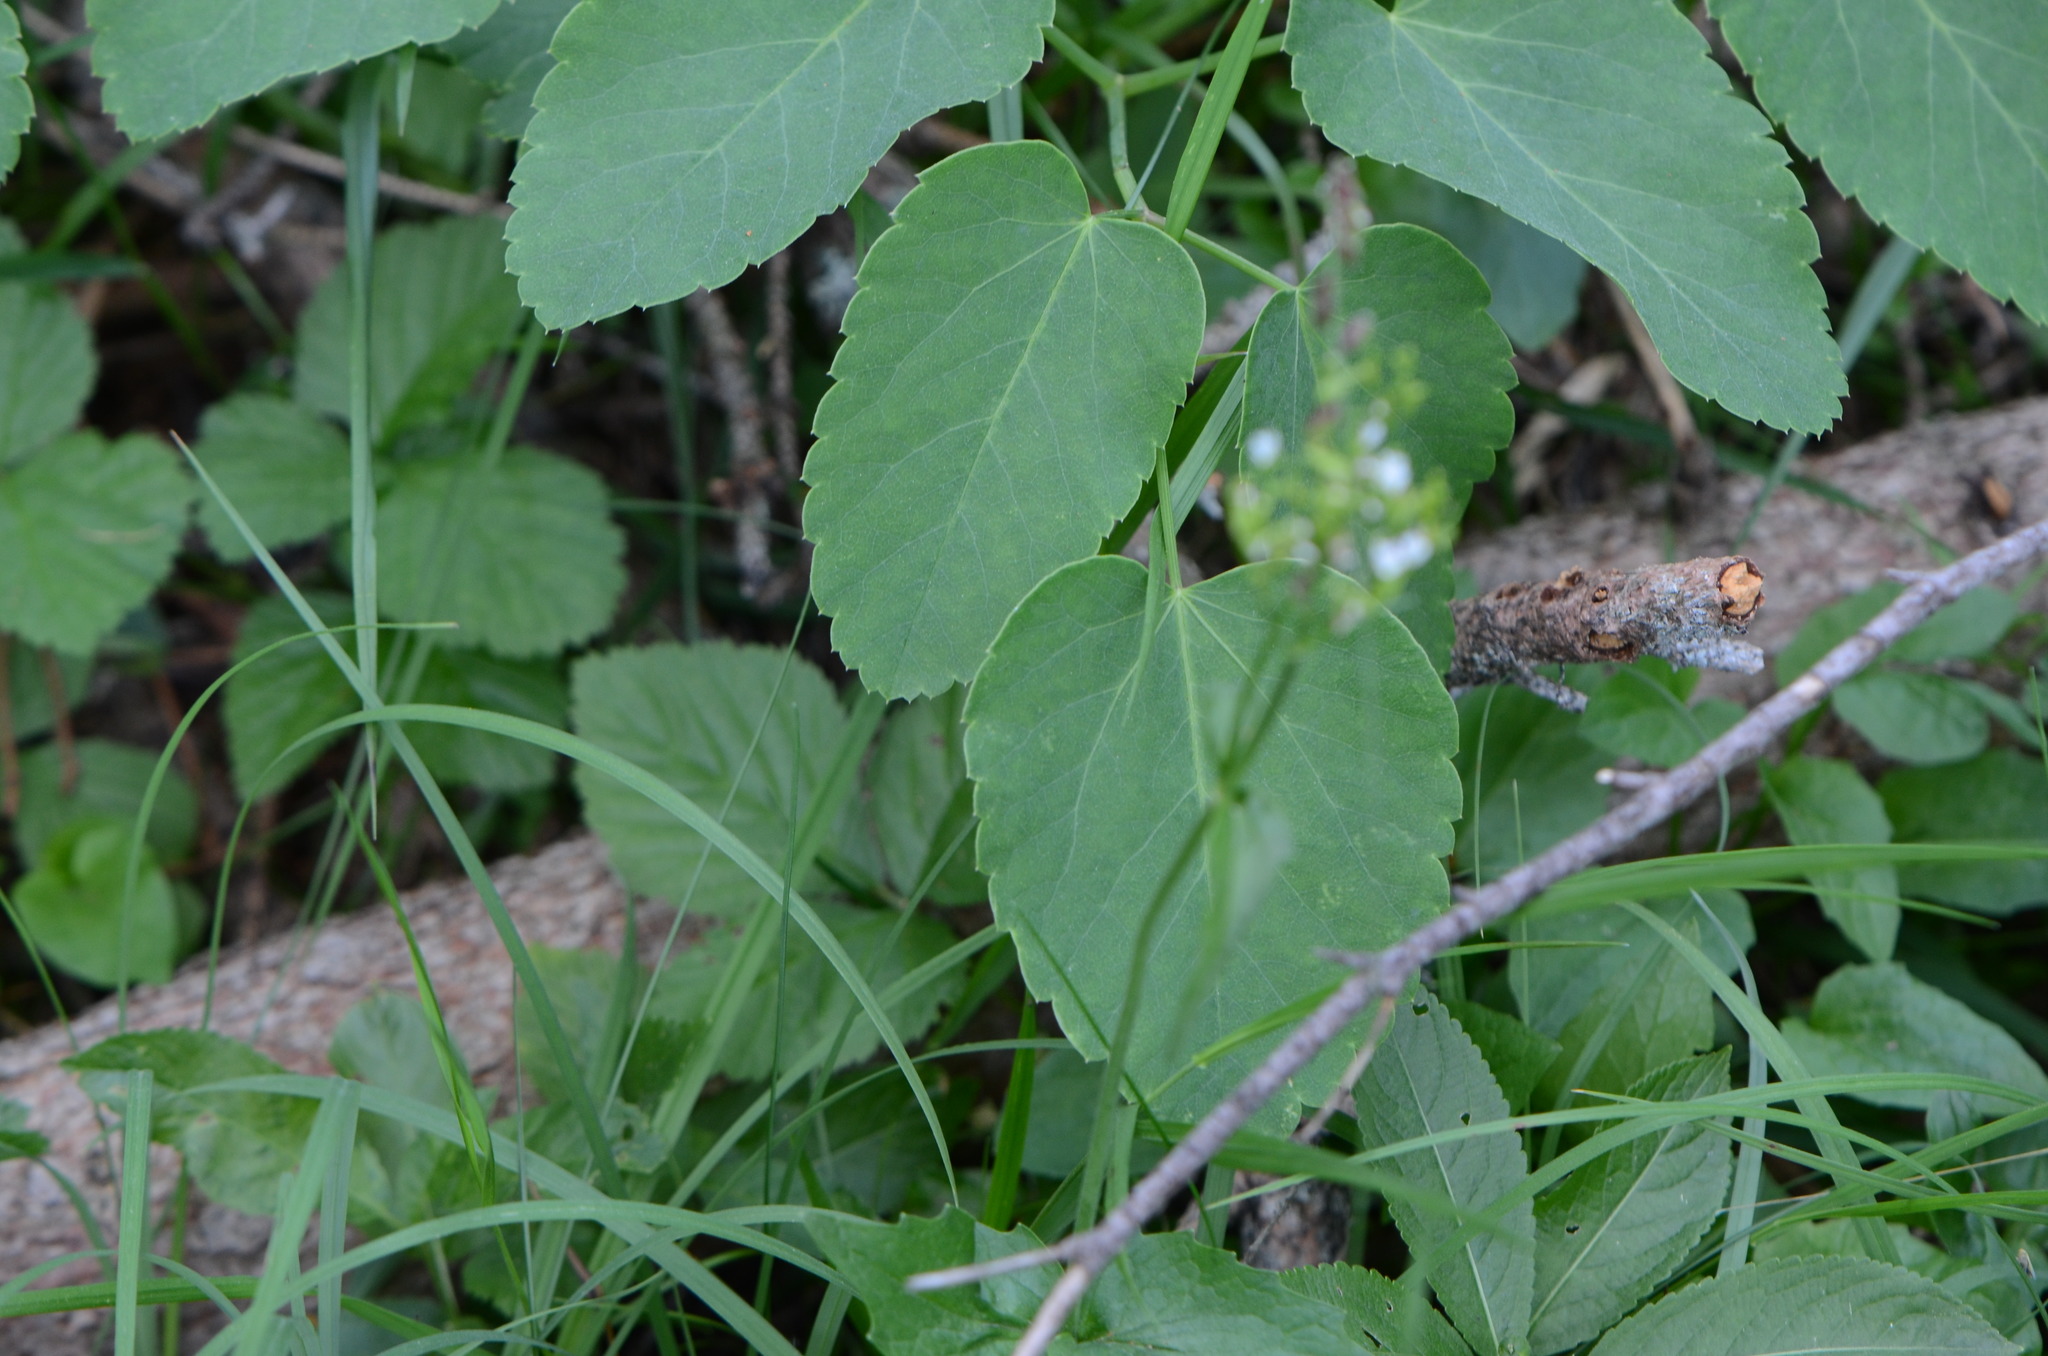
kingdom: Plantae
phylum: Tracheophyta
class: Magnoliopsida
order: Apiales
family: Apiaceae
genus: Laserpitium
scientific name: Laserpitium latifolium
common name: Broadleaf sermountain
